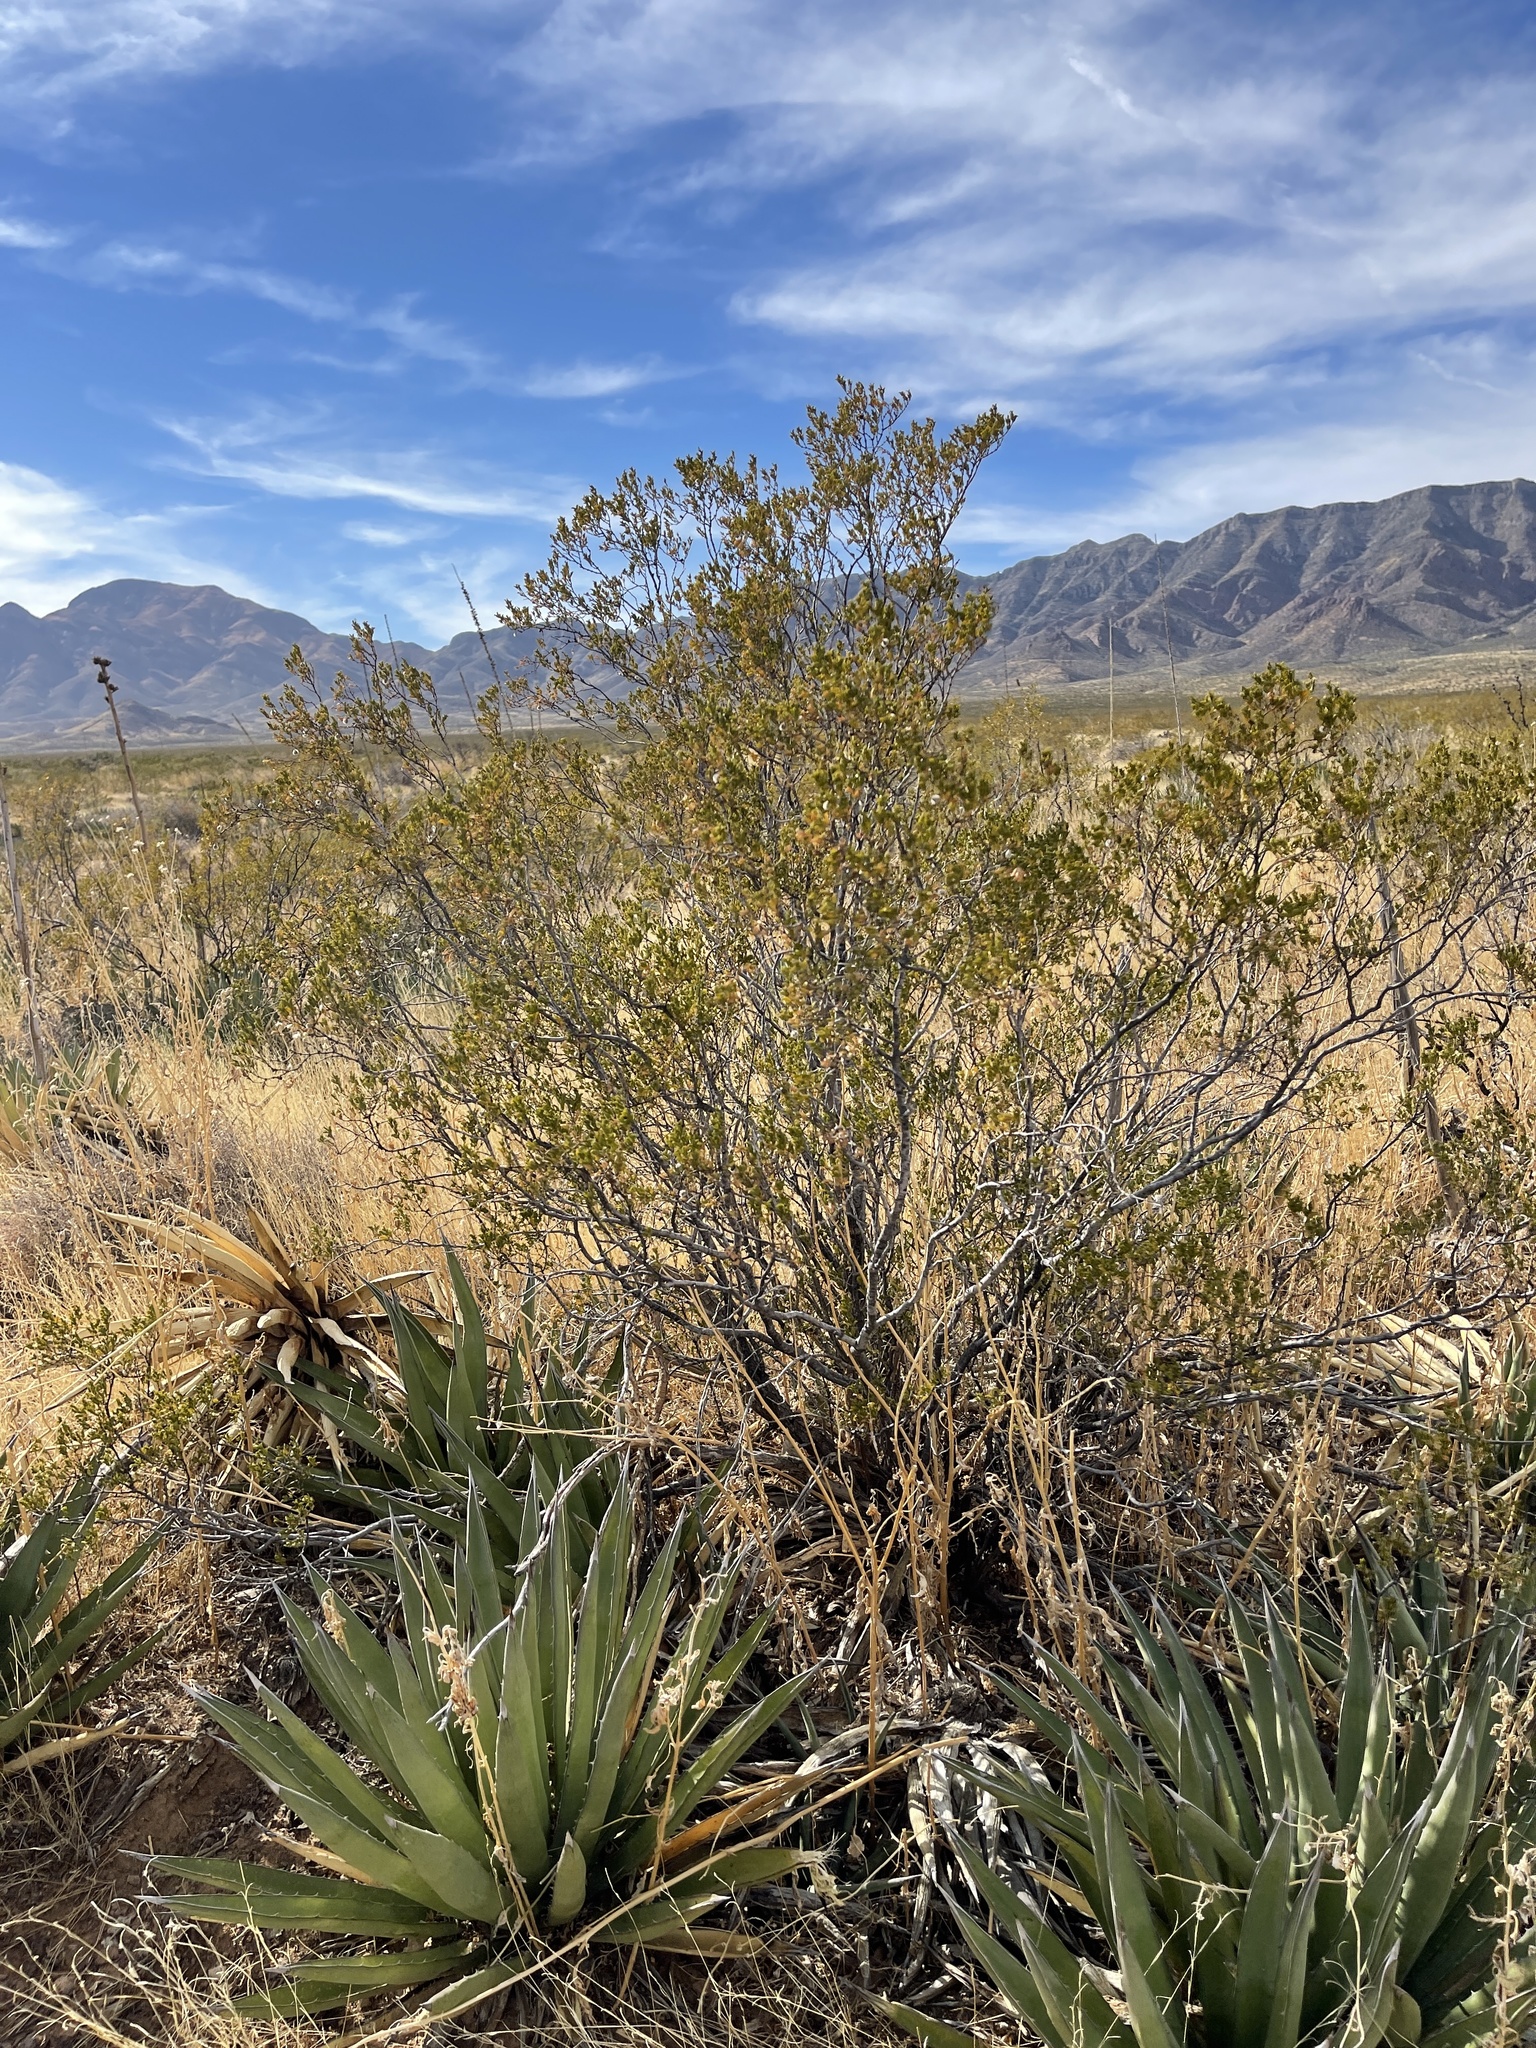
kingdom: Plantae
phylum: Tracheophyta
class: Magnoliopsida
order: Zygophyllales
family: Zygophyllaceae
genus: Larrea
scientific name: Larrea tridentata
